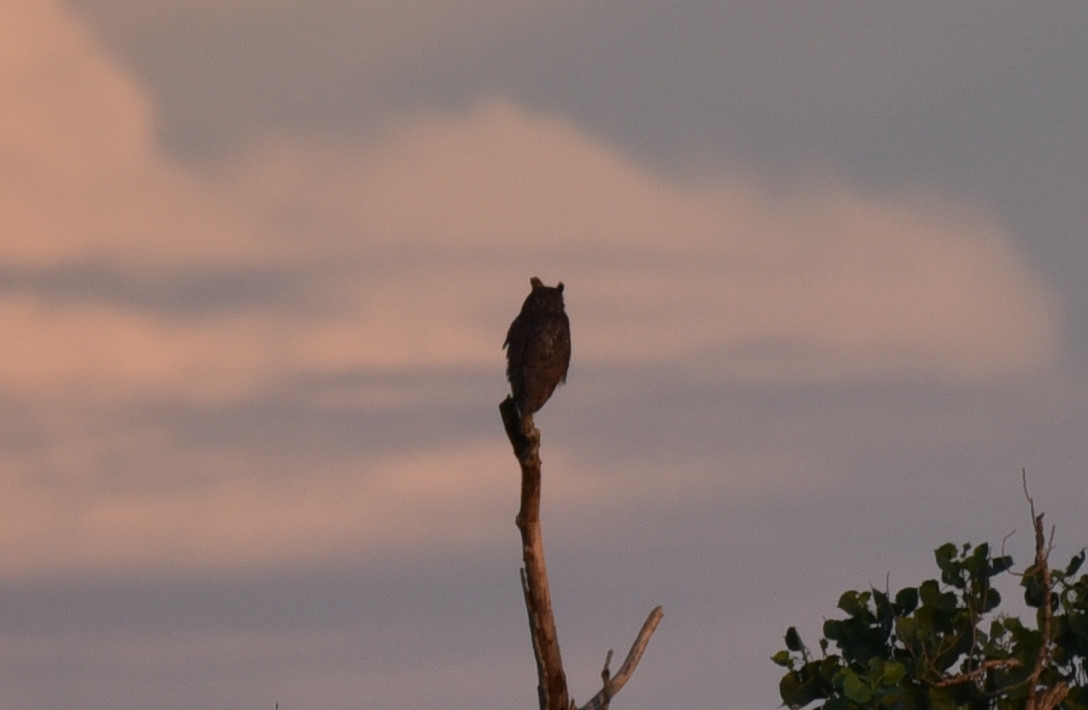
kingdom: Animalia
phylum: Chordata
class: Aves
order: Strigiformes
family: Strigidae
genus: Bubo
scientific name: Bubo virginianus
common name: Great horned owl
